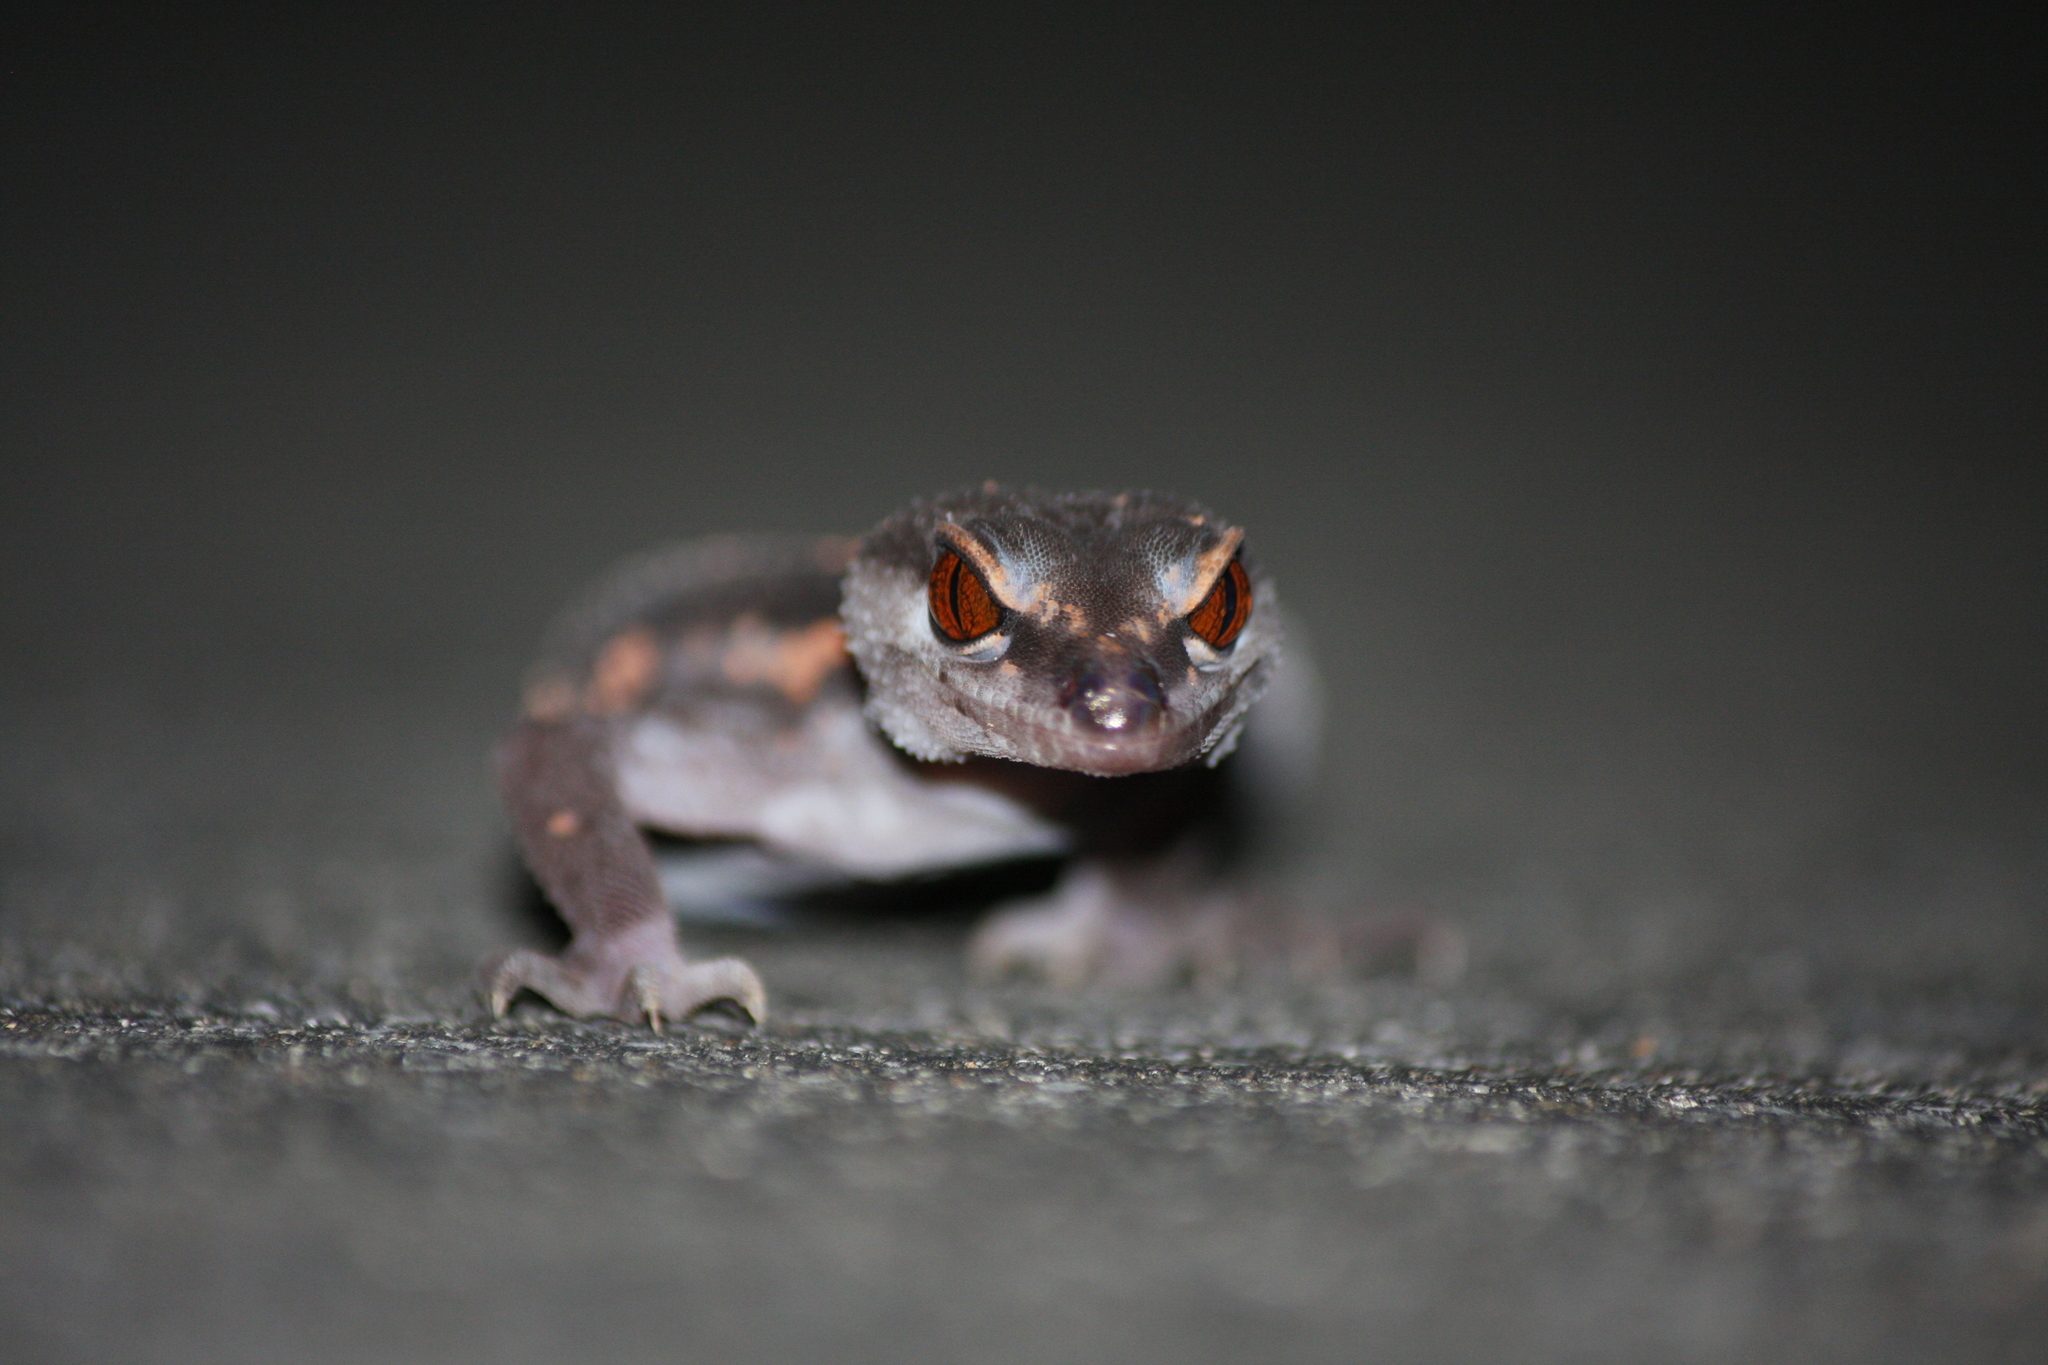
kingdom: Animalia
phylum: Chordata
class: Squamata
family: Eublepharidae
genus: Goniurosaurus
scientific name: Goniurosaurus kuroiwae
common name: Tokashiki gecko
